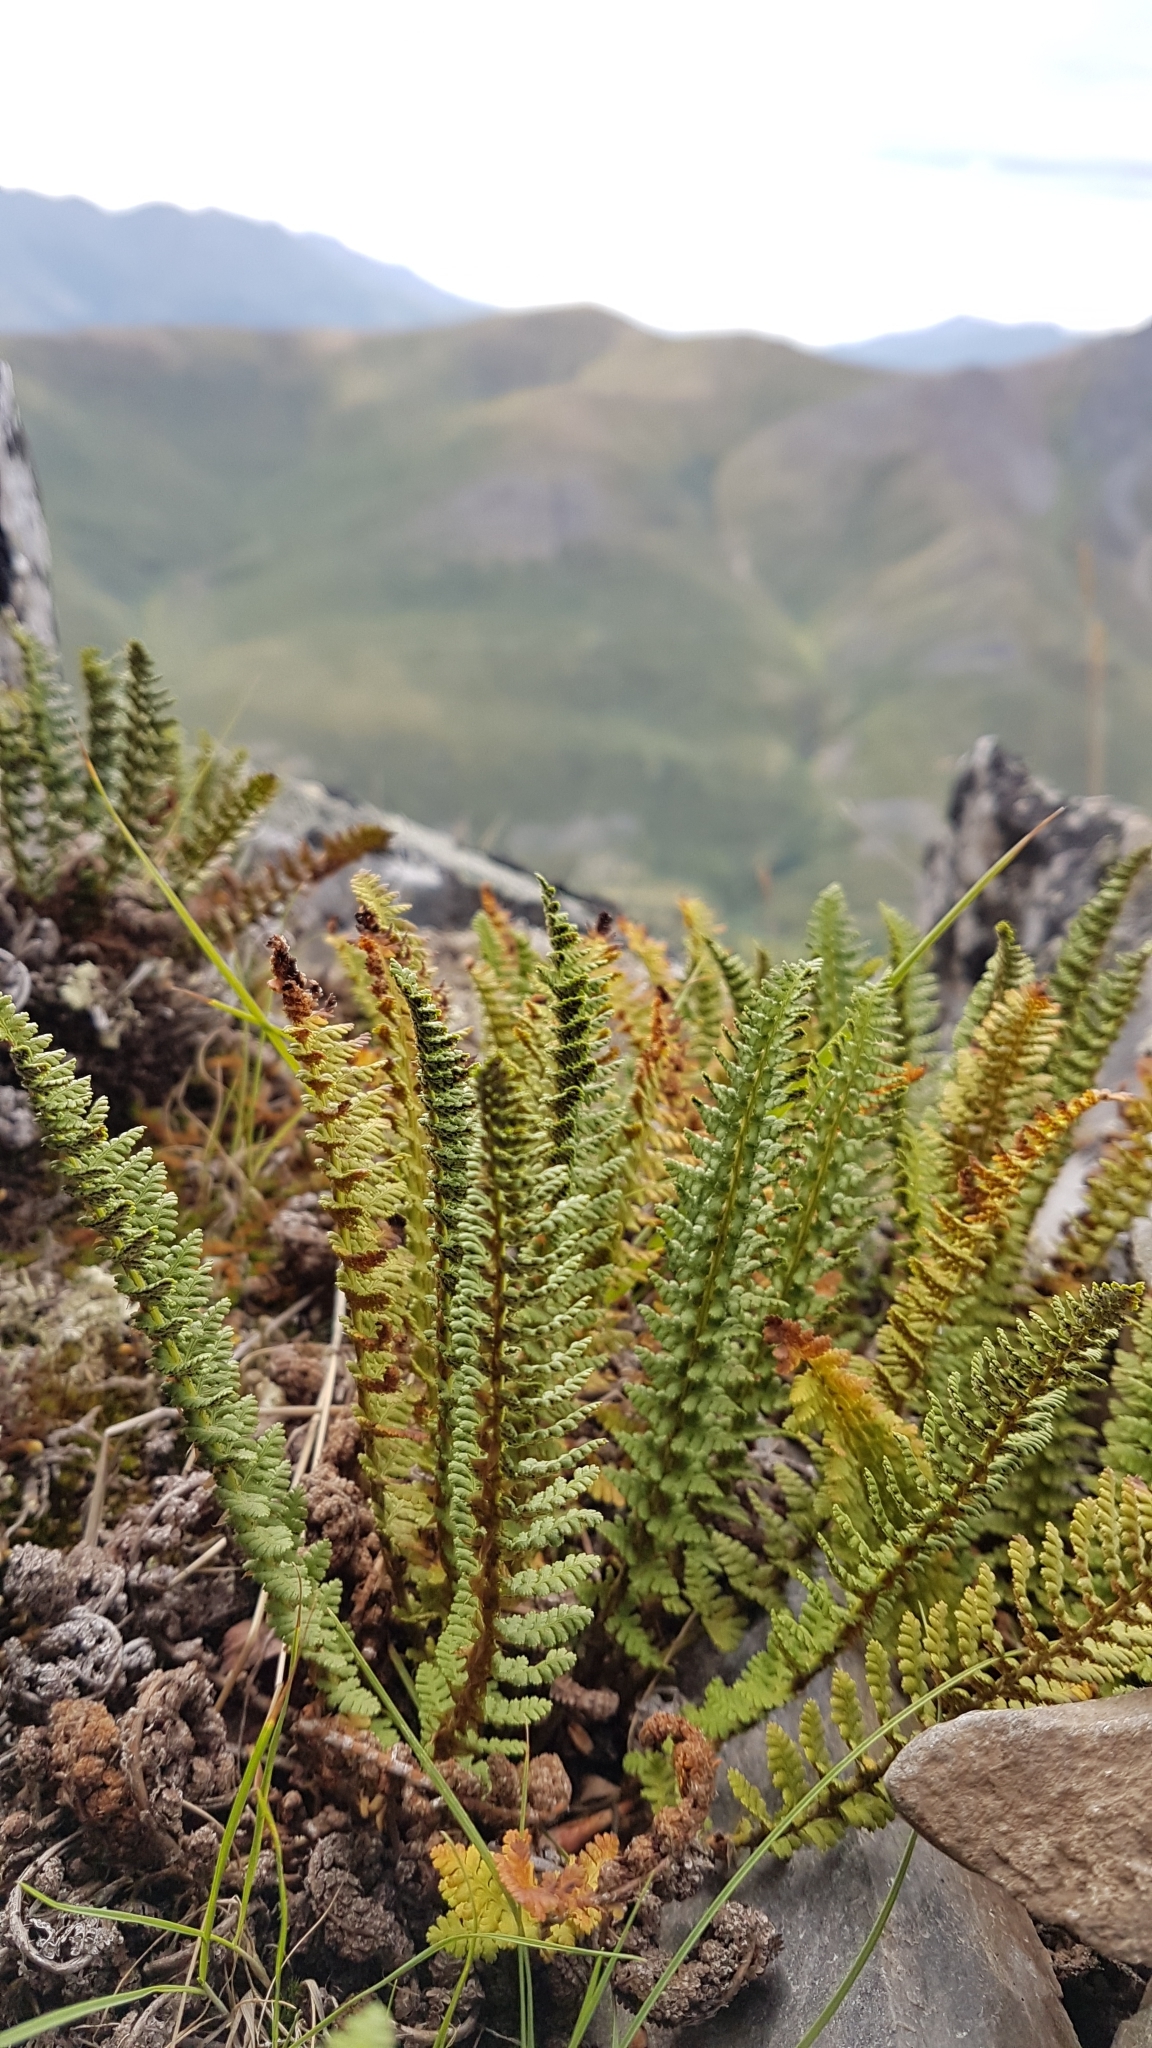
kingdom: Plantae
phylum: Tracheophyta
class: Polypodiopsida
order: Polypodiales
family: Dryopteridaceae
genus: Dryopteris
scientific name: Dryopteris fragrans
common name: Fragrant wood fern
